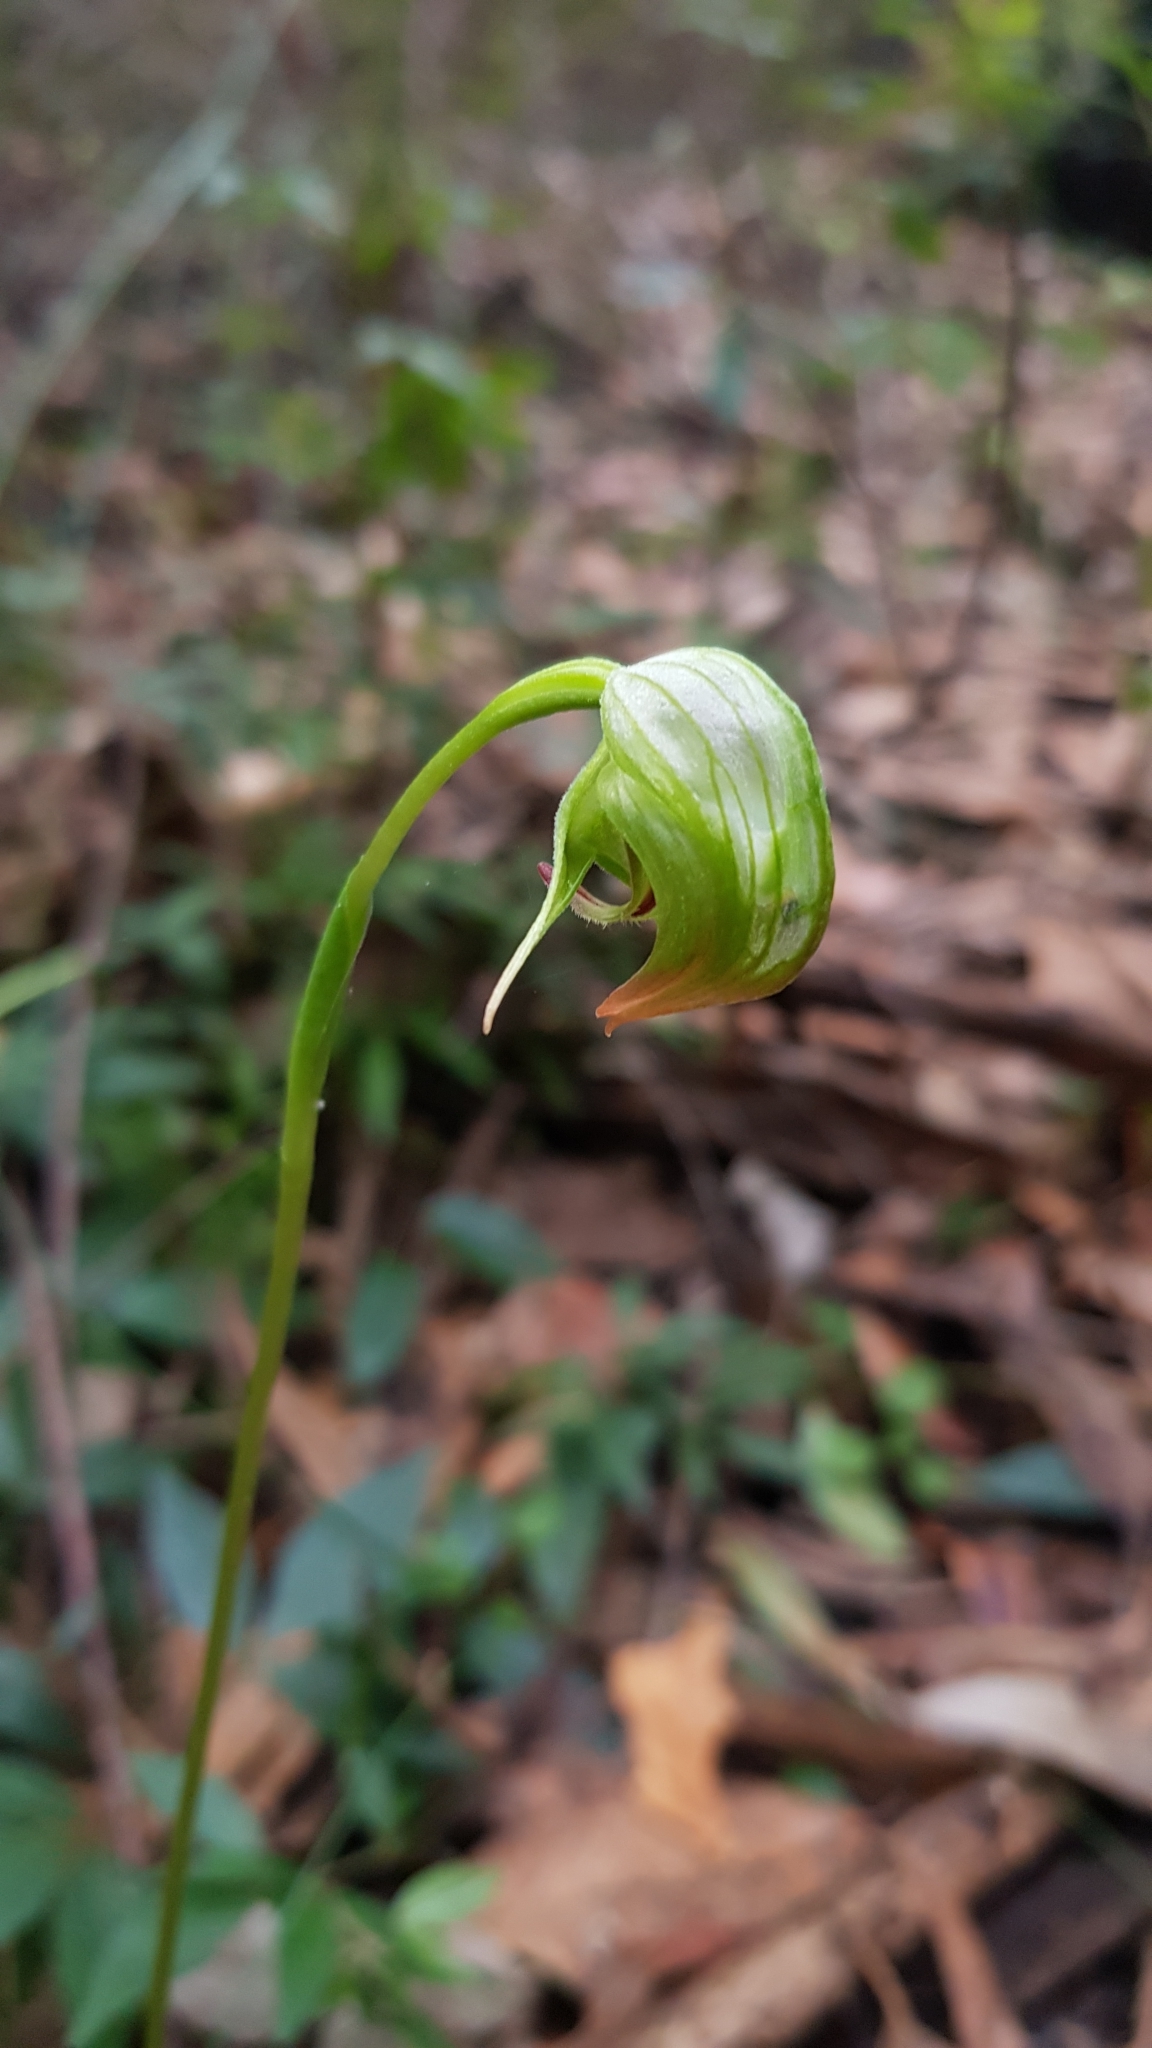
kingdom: Plantae
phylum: Tracheophyta
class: Liliopsida
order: Asparagales
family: Orchidaceae
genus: Pterostylis
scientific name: Pterostylis nutans
